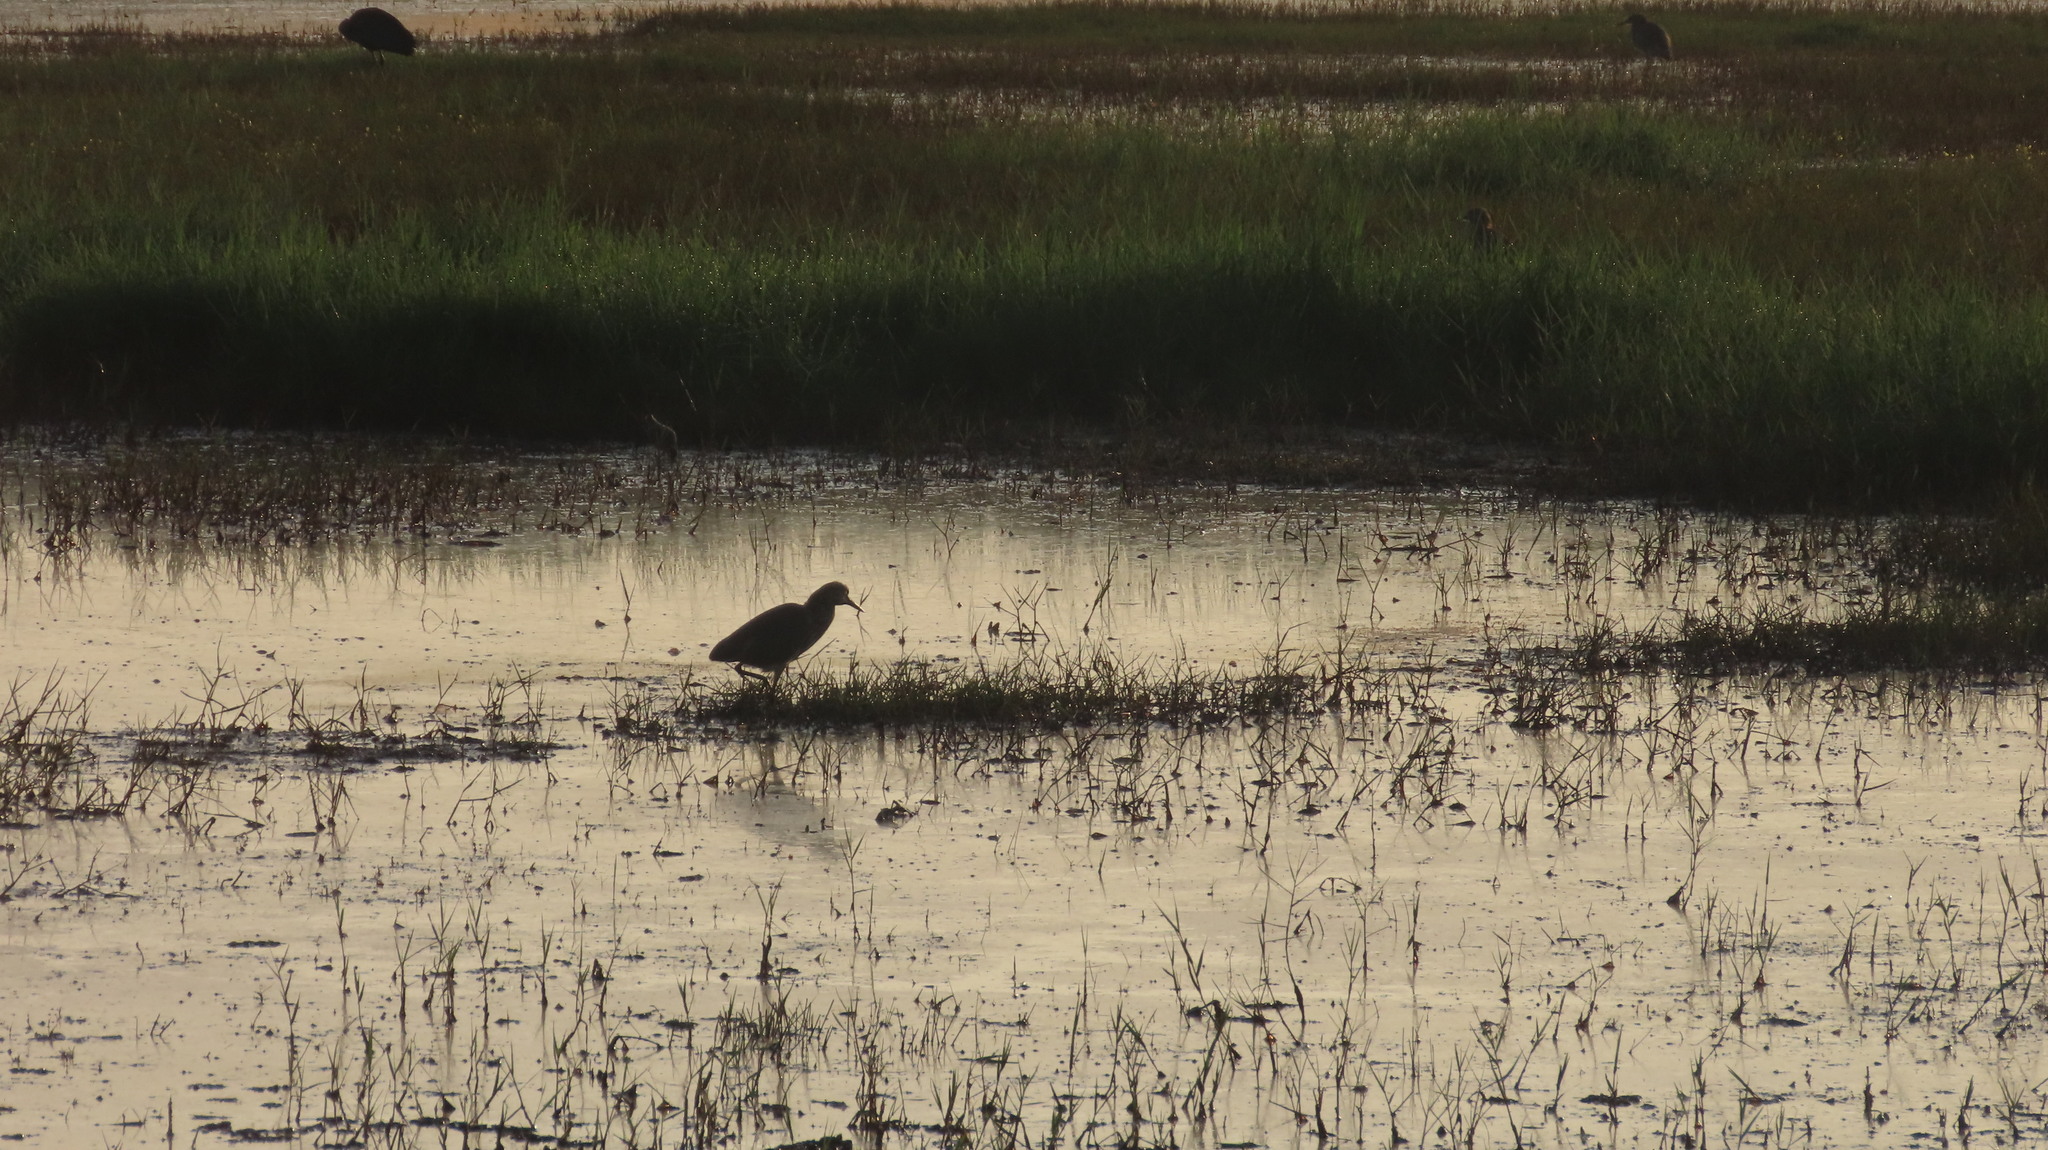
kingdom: Animalia
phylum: Chordata
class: Aves
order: Pelecaniformes
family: Ardeidae
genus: Ardeola
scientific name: Ardeola grayii
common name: Indian pond heron
